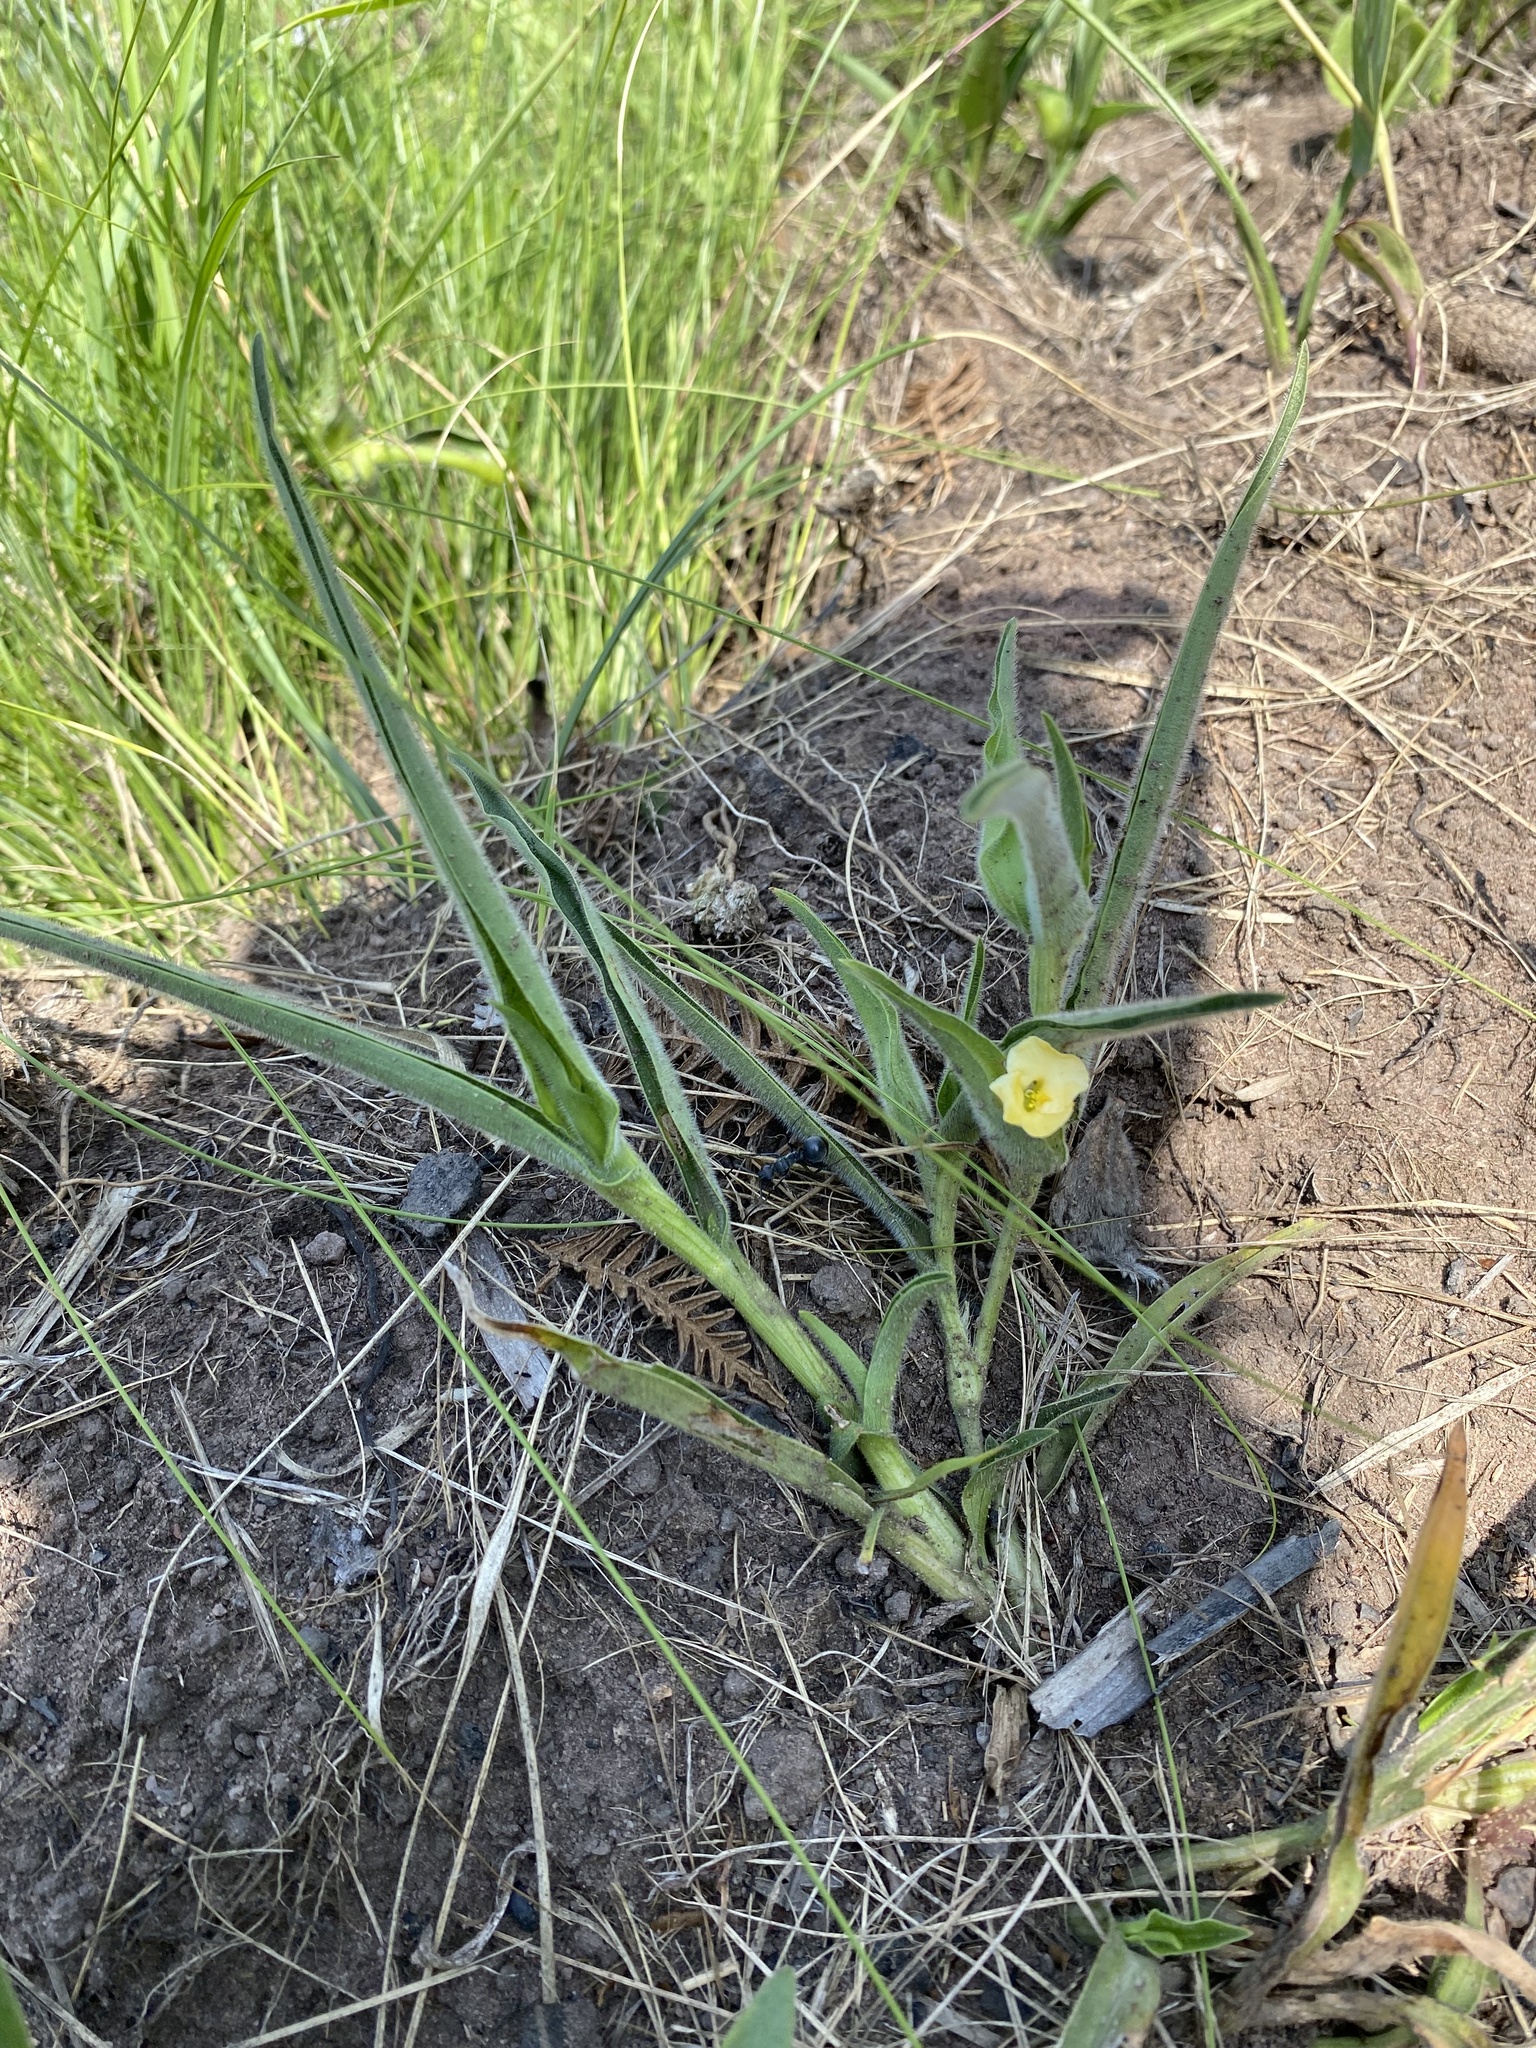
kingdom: Plantae
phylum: Tracheophyta
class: Liliopsida
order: Commelinales
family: Commelinaceae
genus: Commelina
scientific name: Commelina africana
